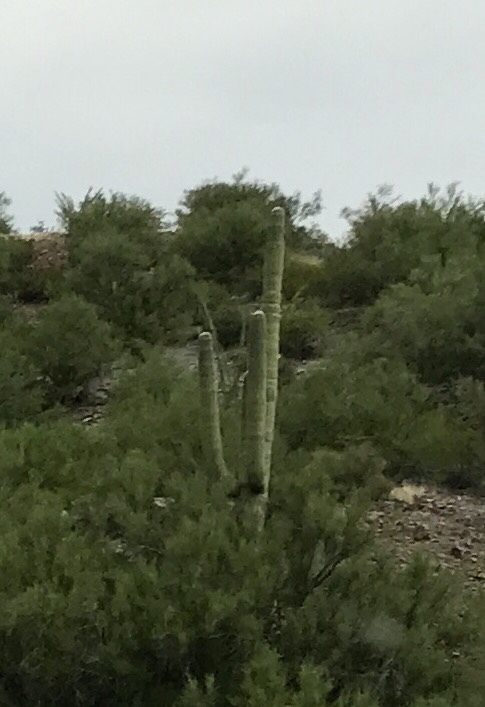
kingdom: Plantae
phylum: Tracheophyta
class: Magnoliopsida
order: Caryophyllales
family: Cactaceae
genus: Carnegiea
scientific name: Carnegiea gigantea
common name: Saguaro
